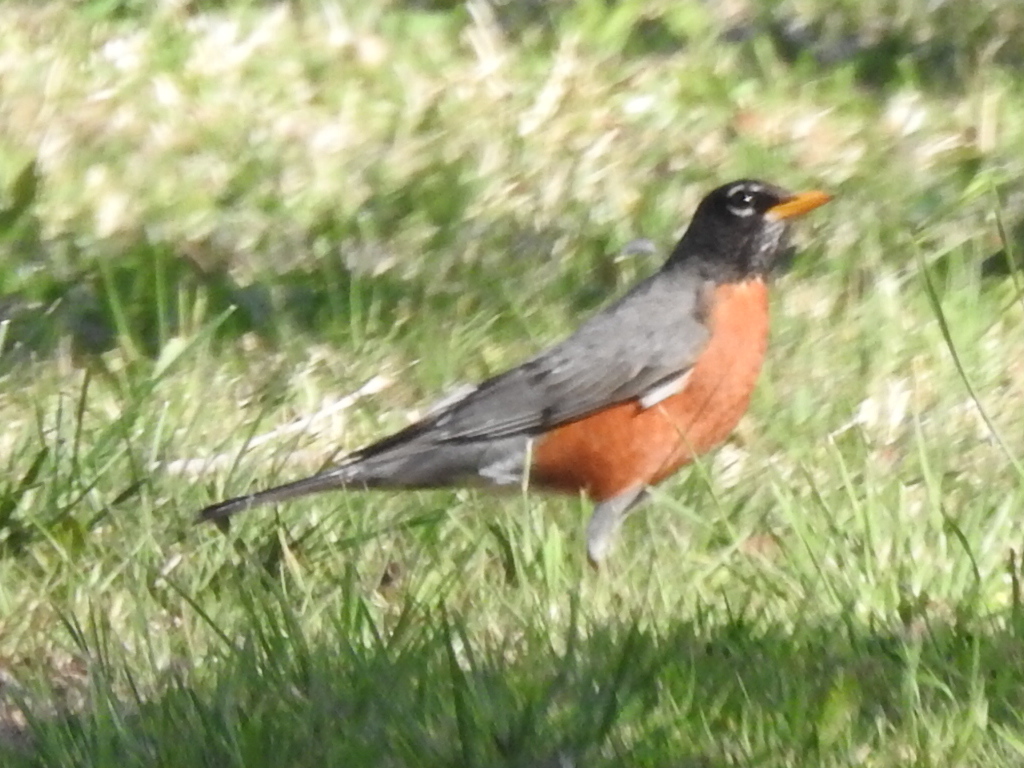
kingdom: Animalia
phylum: Chordata
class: Aves
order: Passeriformes
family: Turdidae
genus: Turdus
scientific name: Turdus migratorius
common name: American robin
